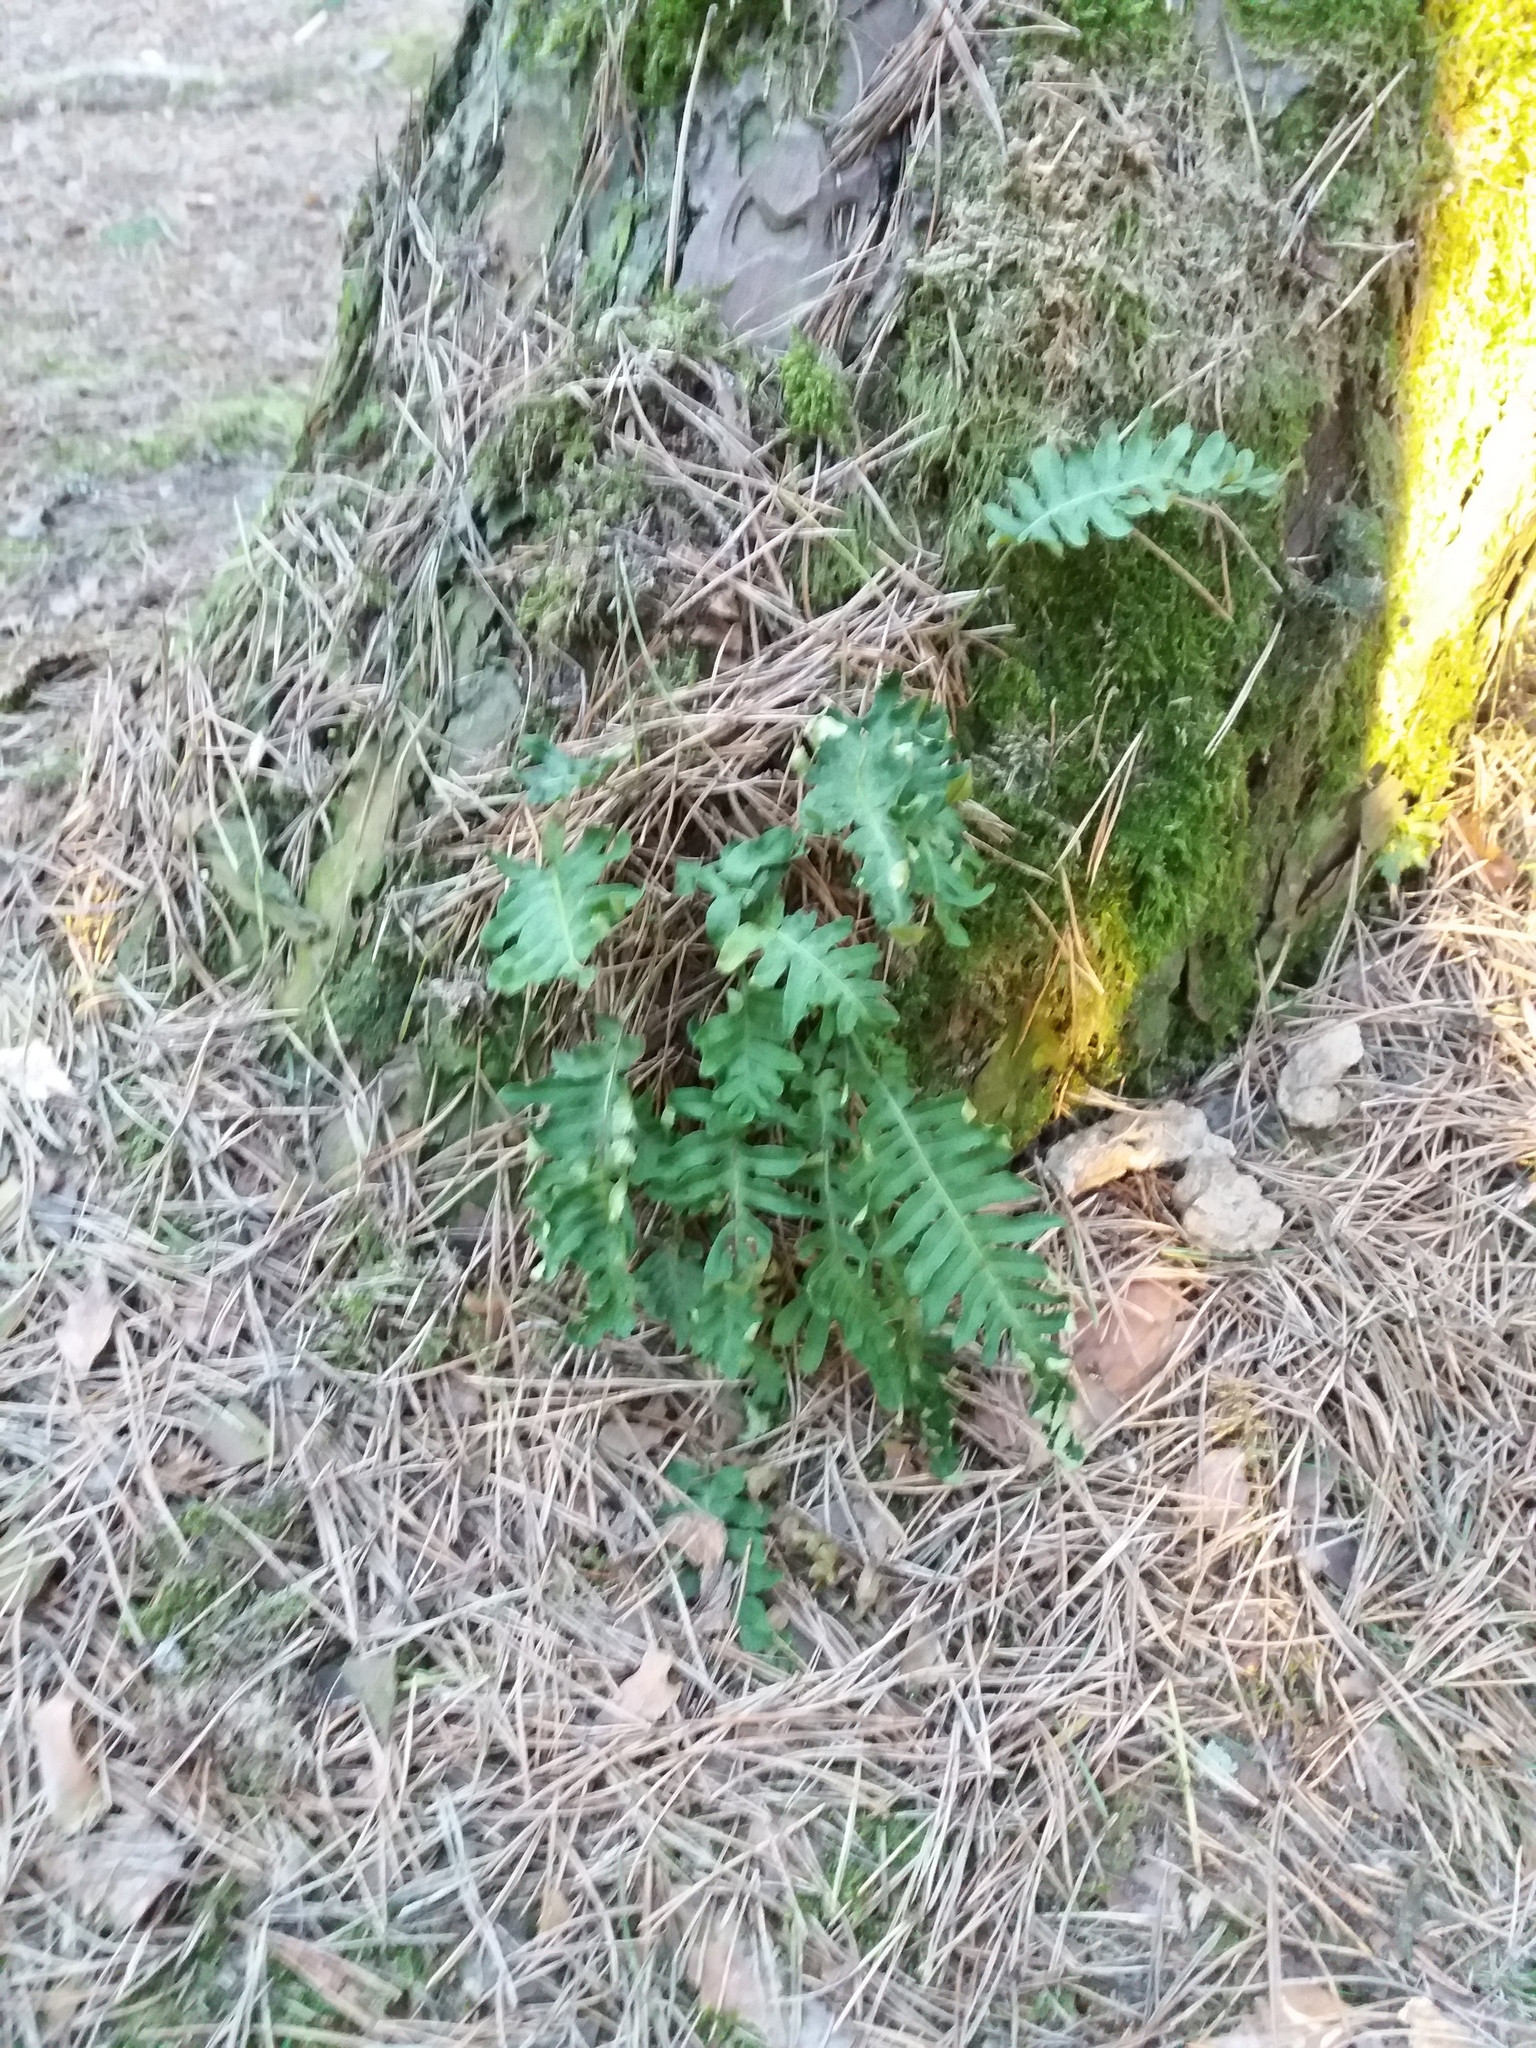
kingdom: Plantae
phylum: Tracheophyta
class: Polypodiopsida
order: Polypodiales
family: Polypodiaceae
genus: Polypodium
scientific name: Polypodium vulgare
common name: Common polypody
